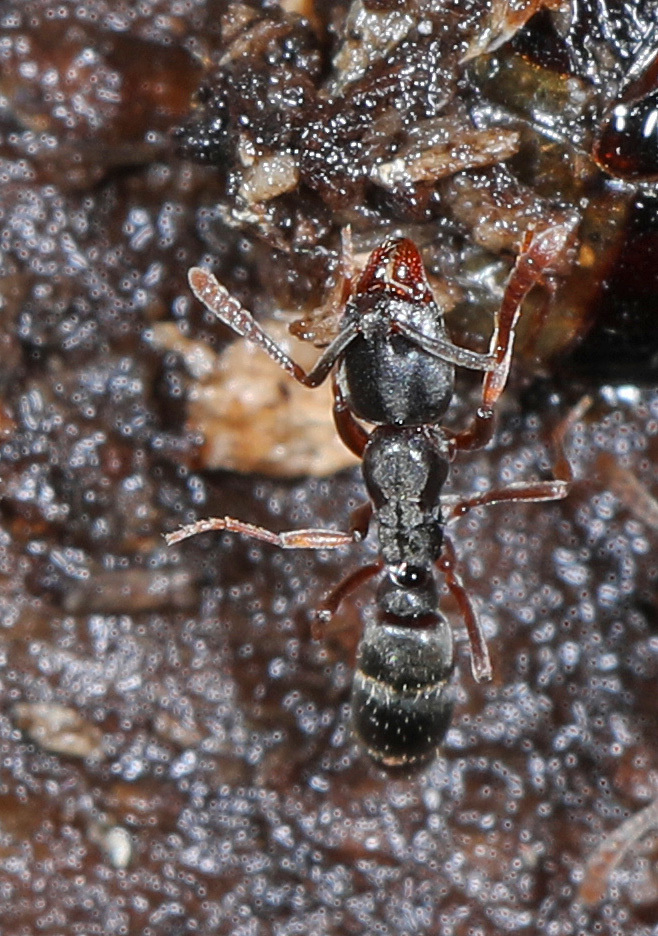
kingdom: Animalia
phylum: Arthropoda
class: Insecta
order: Hymenoptera
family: Formicidae
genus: Pachycondyla
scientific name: Pachycondyla chinensis
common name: Asian needle ant
